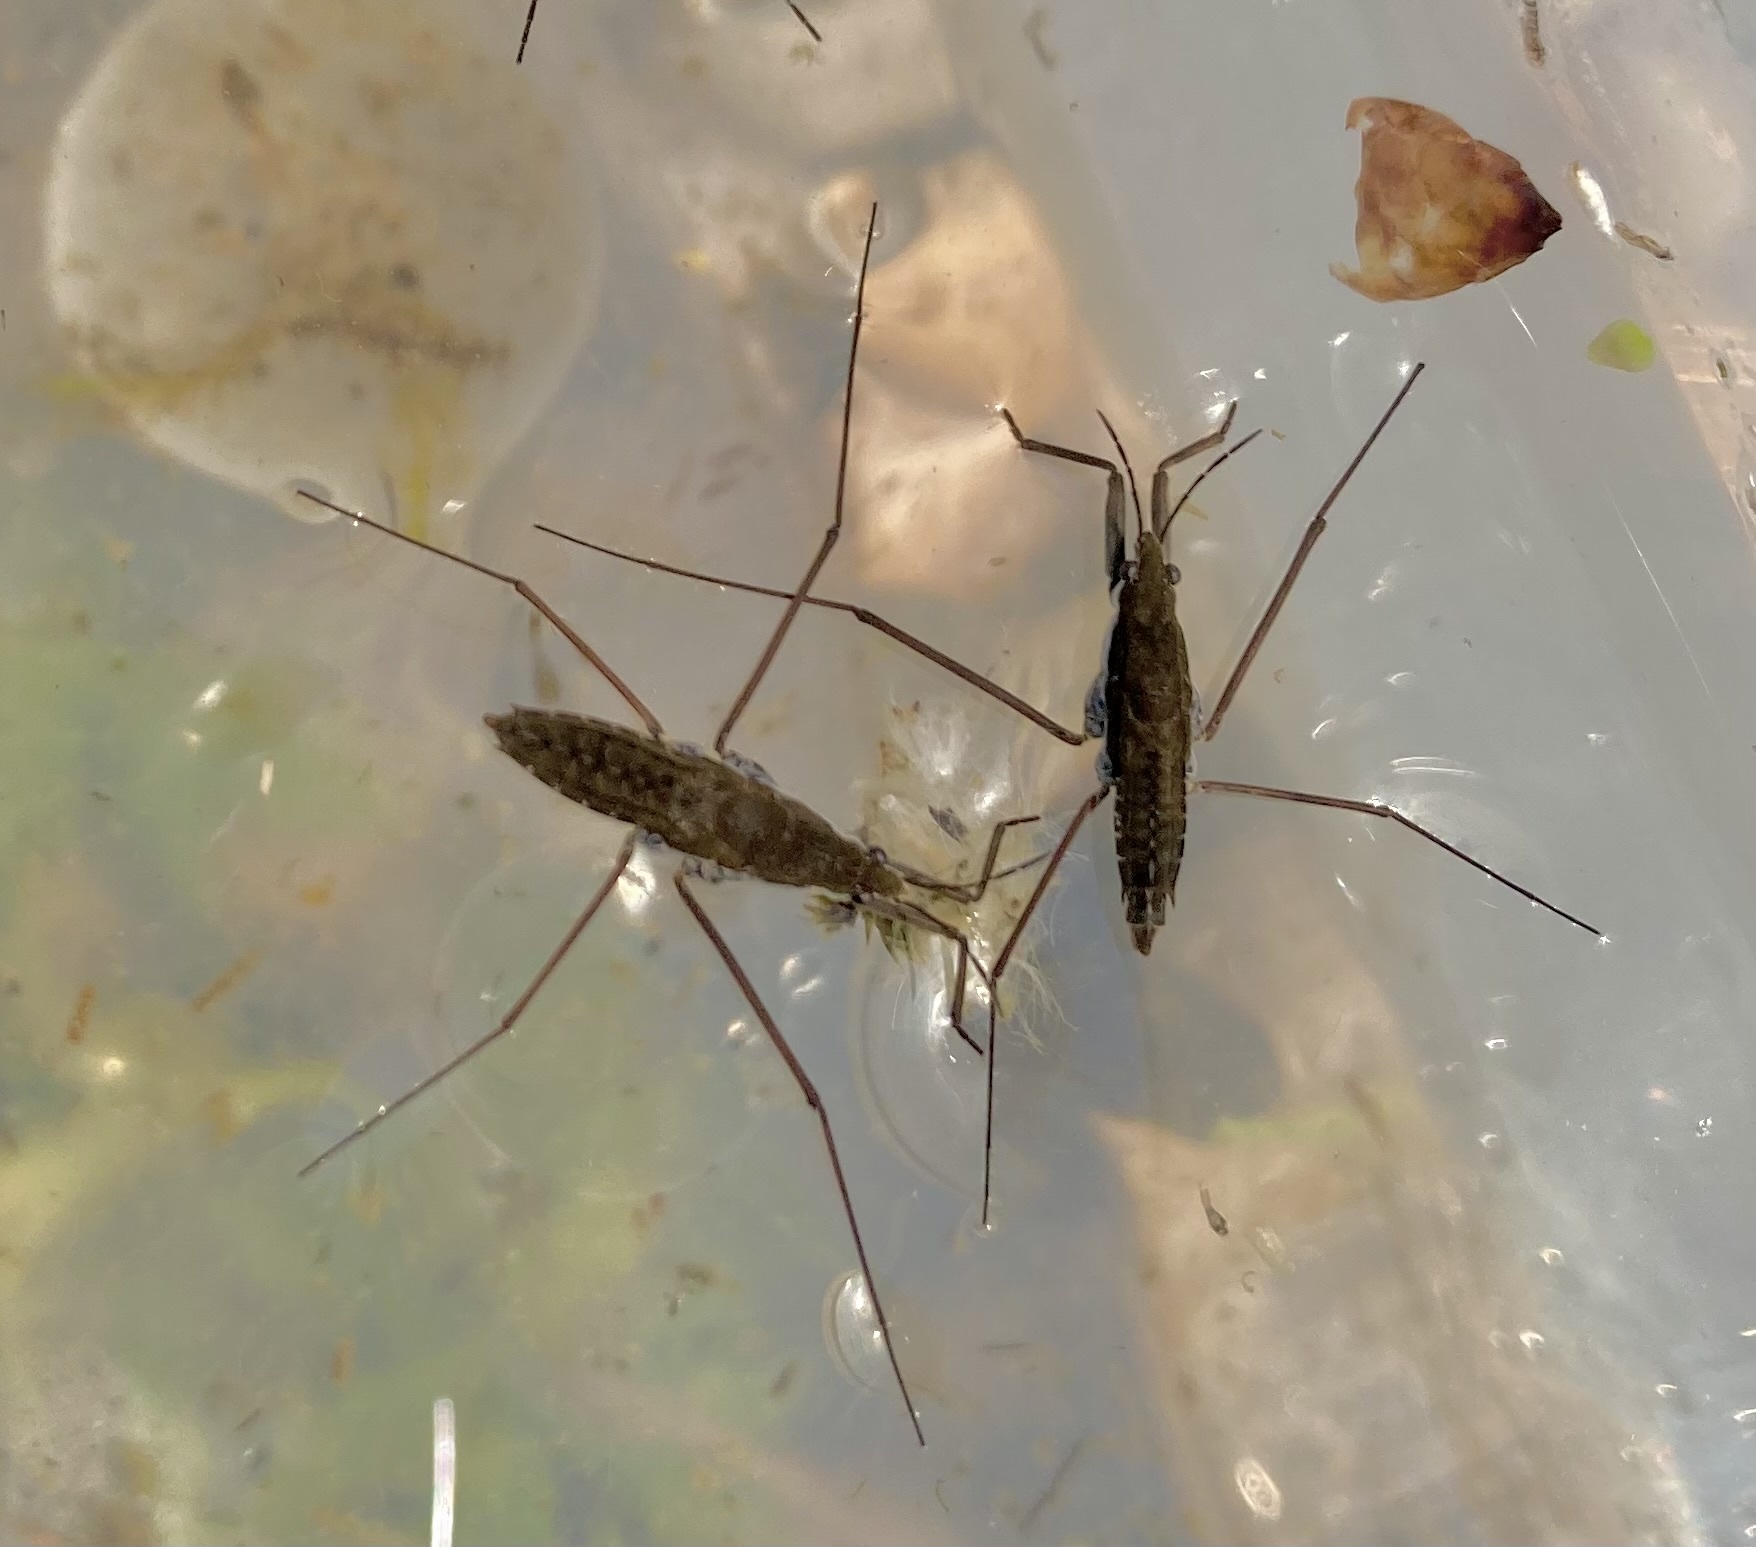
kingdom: Animalia
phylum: Arthropoda
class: Insecta
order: Hemiptera
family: Gerridae
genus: Aquarius
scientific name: Aquarius remigis
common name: Common water strider
